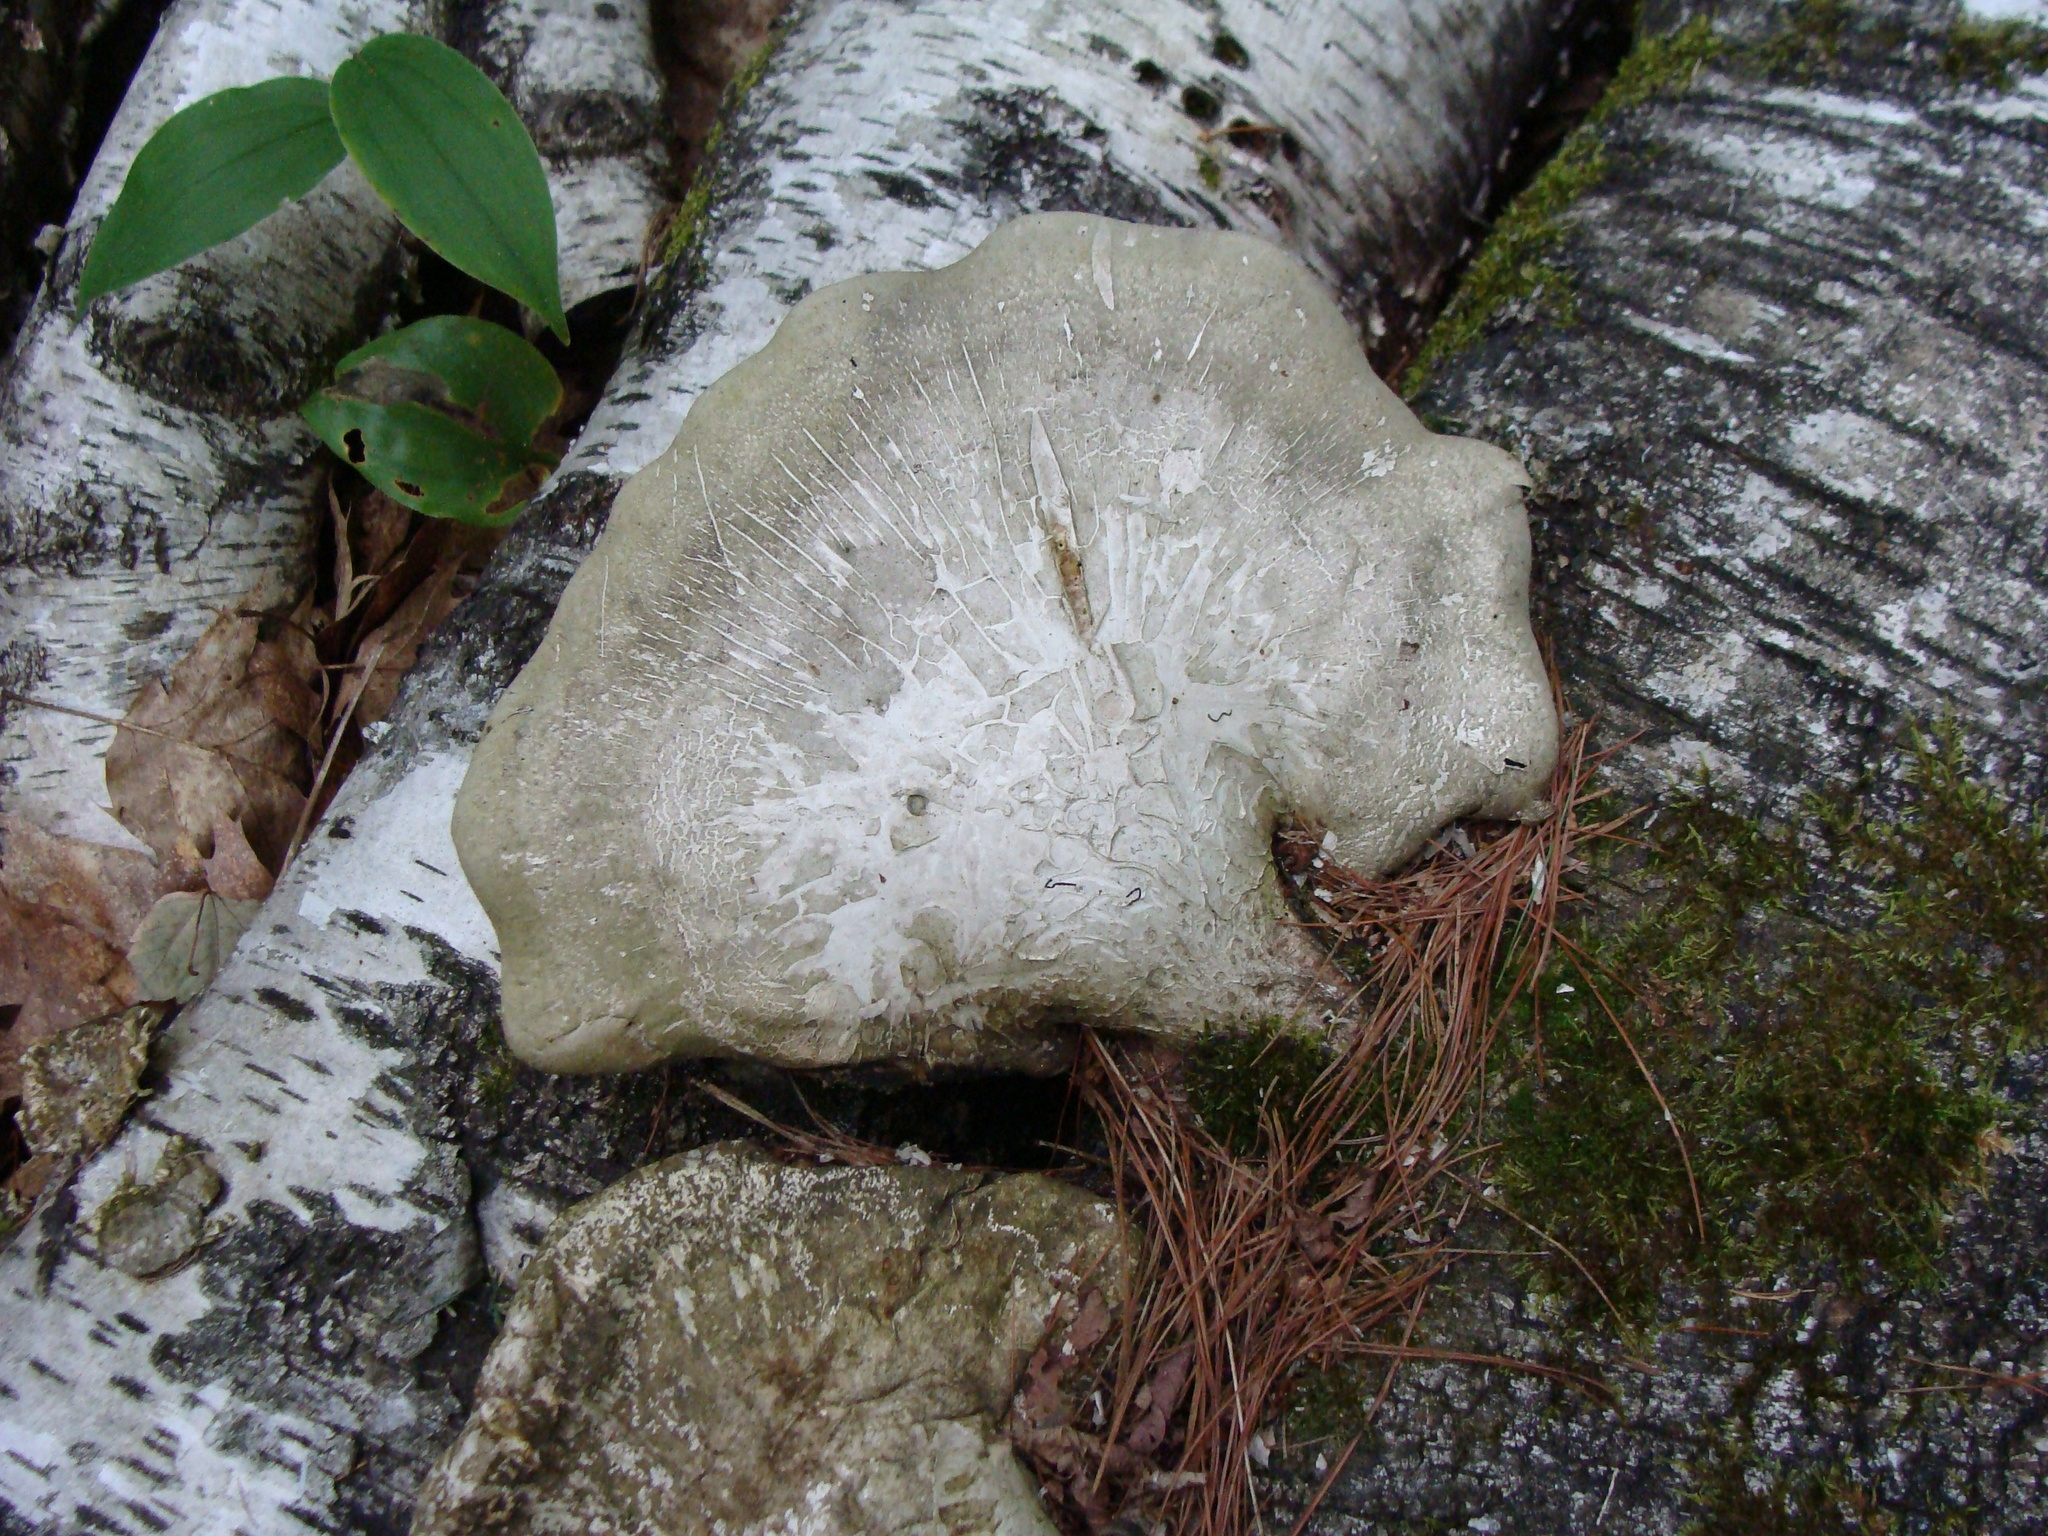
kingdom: Fungi
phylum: Basidiomycota
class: Agaricomycetes
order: Polyporales
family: Fomitopsidaceae
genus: Fomitopsis
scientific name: Fomitopsis betulina
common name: Birch polypore
